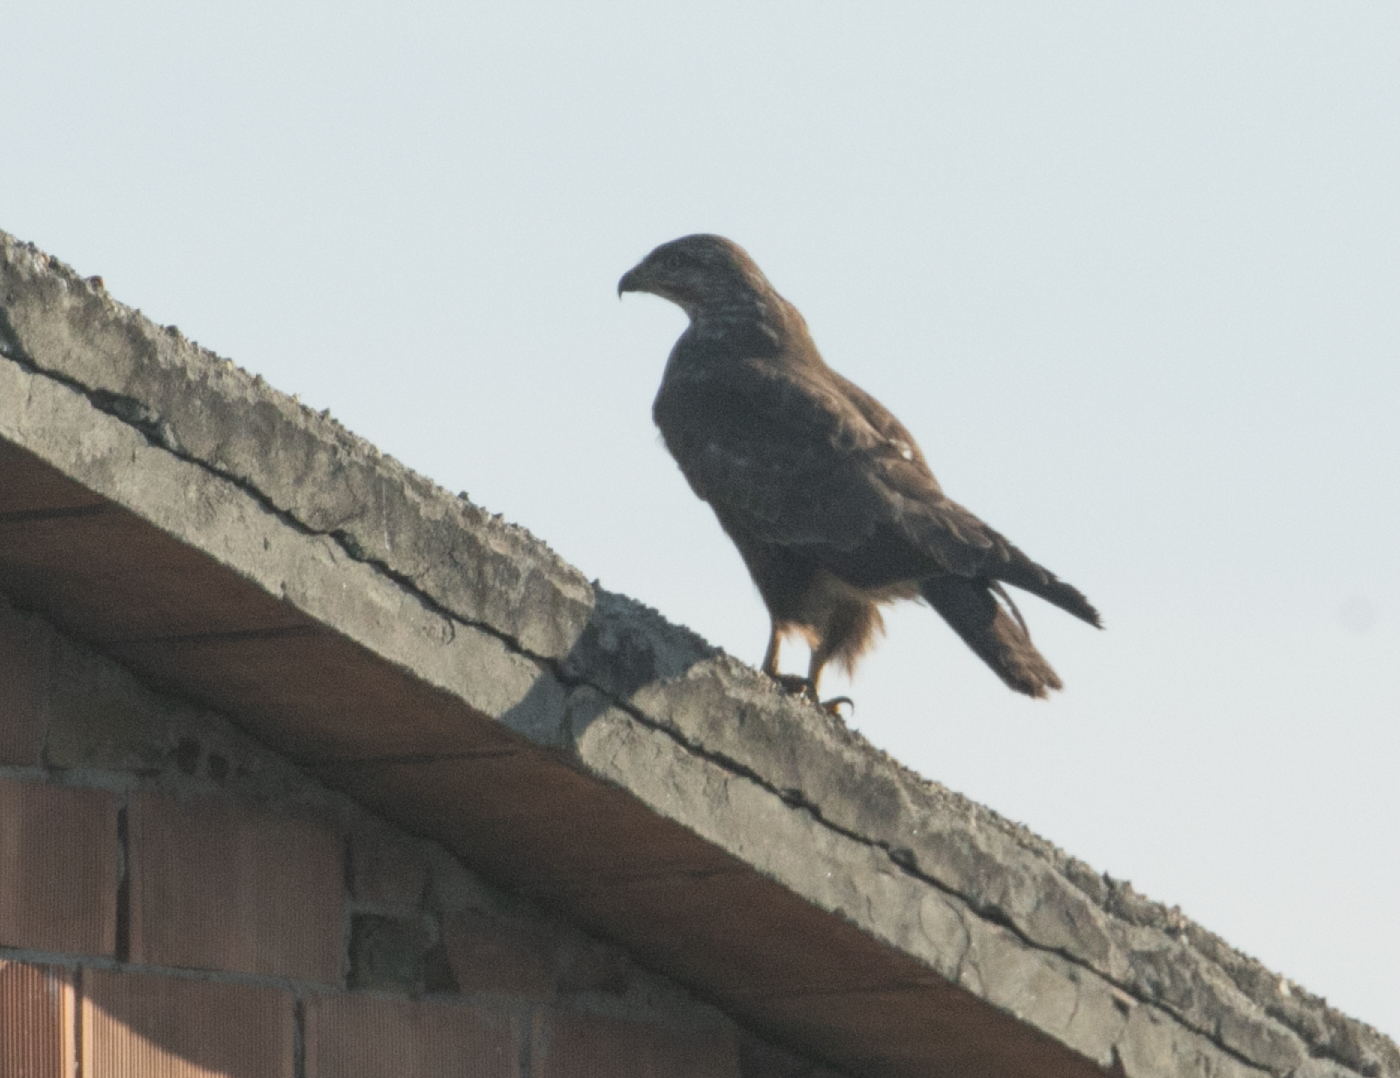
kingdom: Animalia
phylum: Chordata
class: Aves
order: Accipitriformes
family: Accipitridae
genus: Buteo
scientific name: Buteo buteo
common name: Common buzzard
